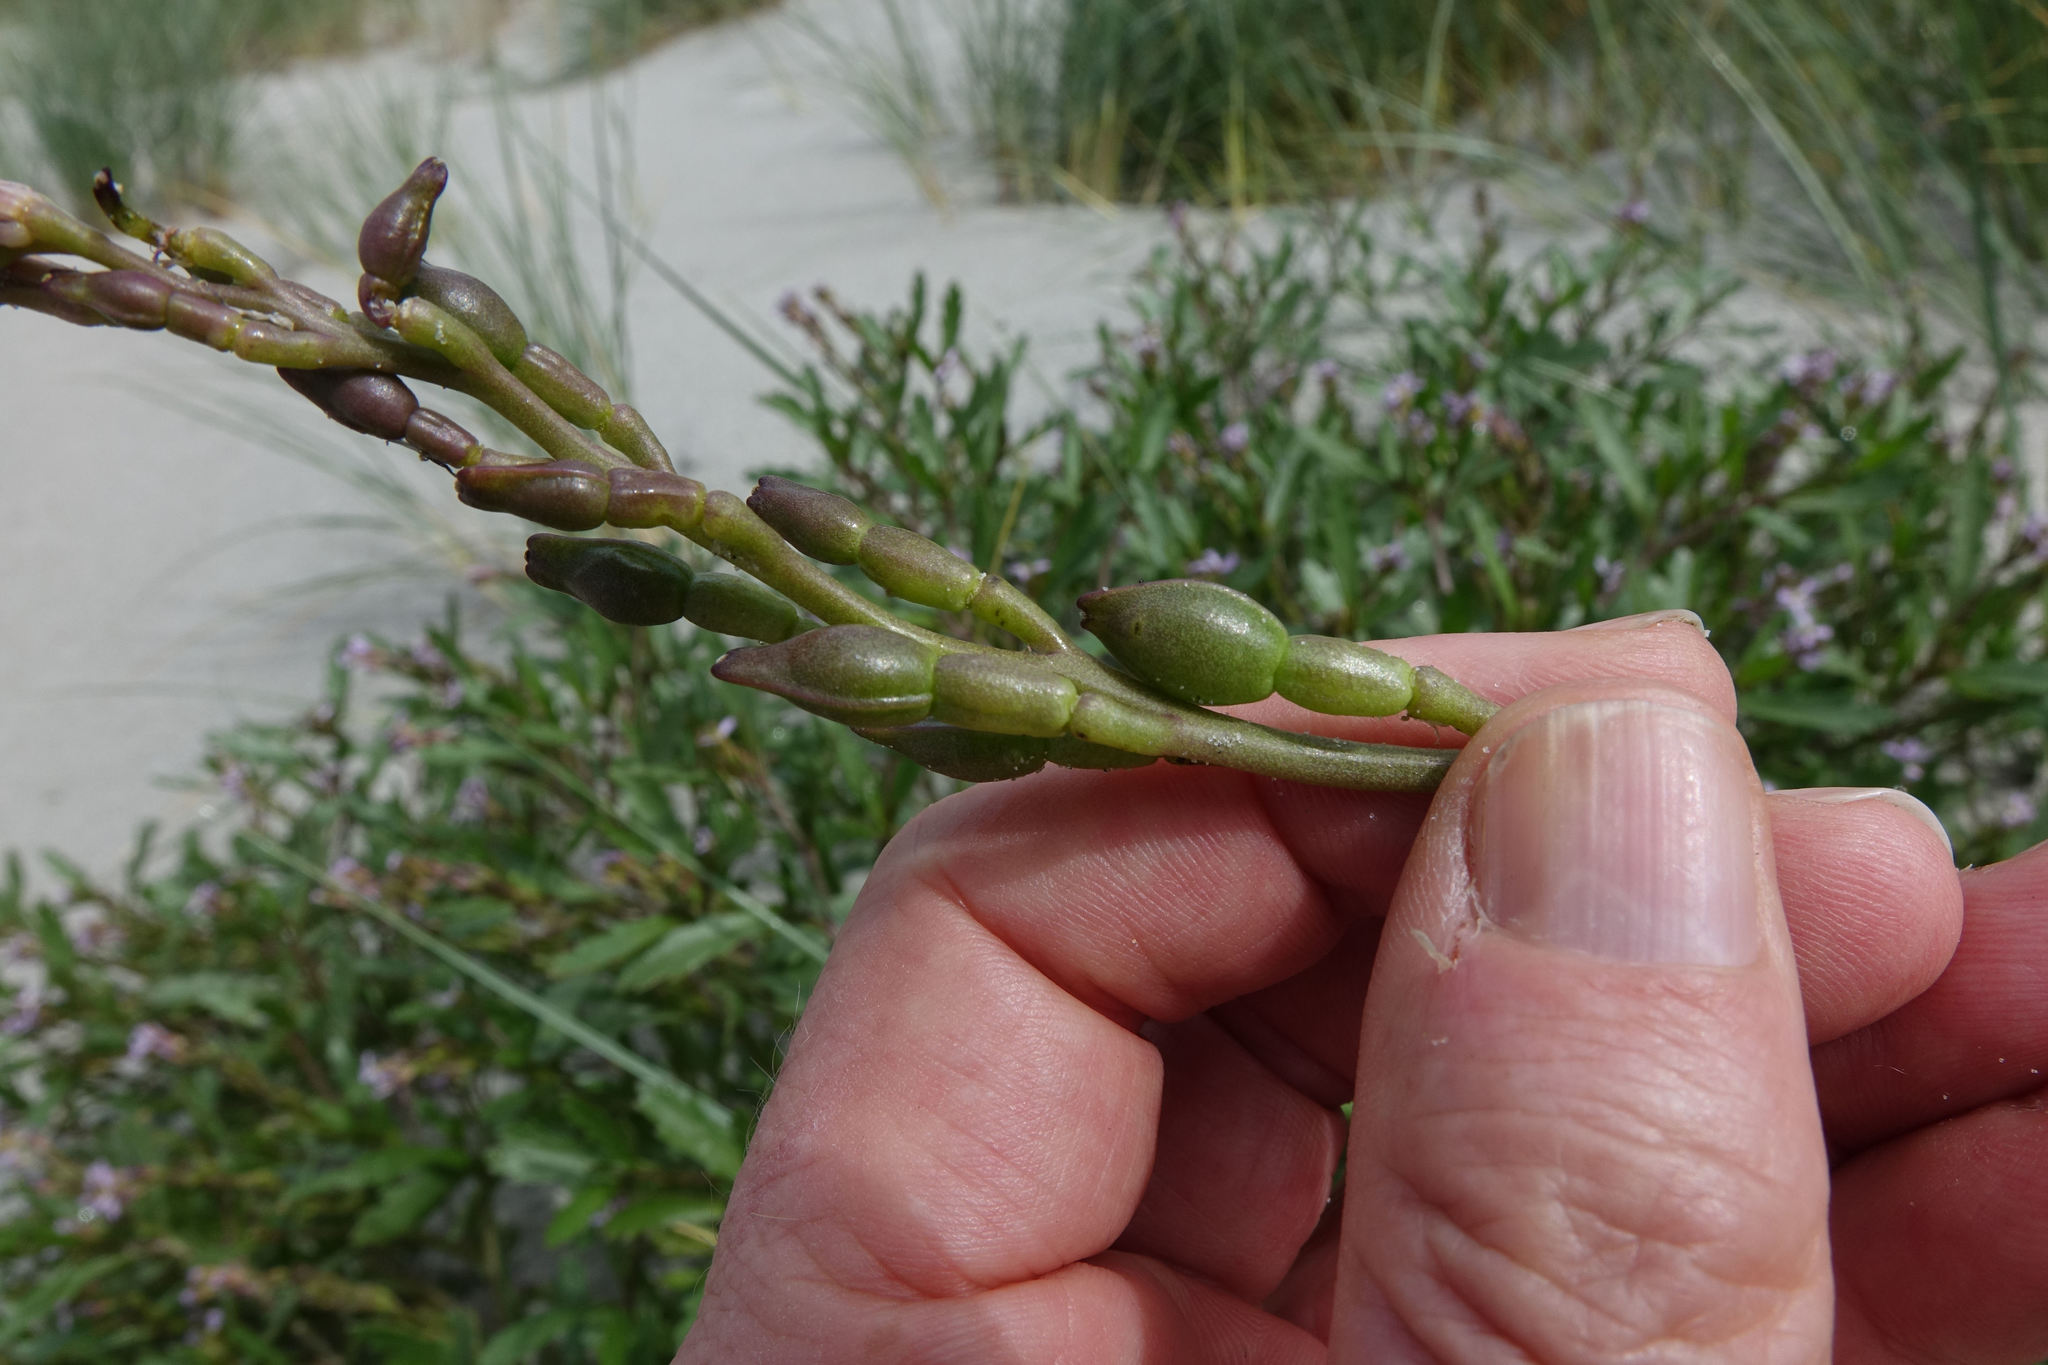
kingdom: Plantae
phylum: Tracheophyta
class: Magnoliopsida
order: Brassicales
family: Brassicaceae
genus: Cakile
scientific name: Cakile edentula
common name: American sea rocket
